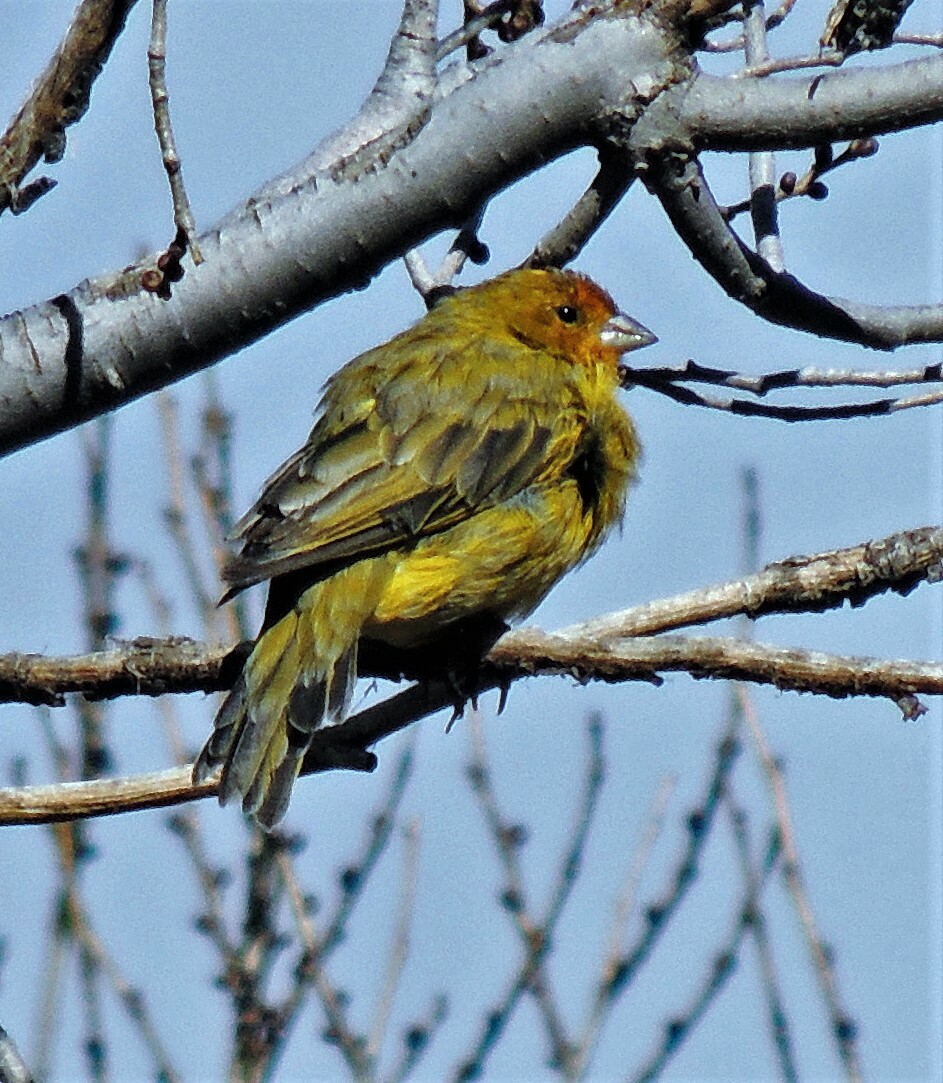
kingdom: Animalia
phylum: Chordata
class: Aves
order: Passeriformes
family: Thraupidae
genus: Sicalis
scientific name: Sicalis flaveola
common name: Saffron finch
